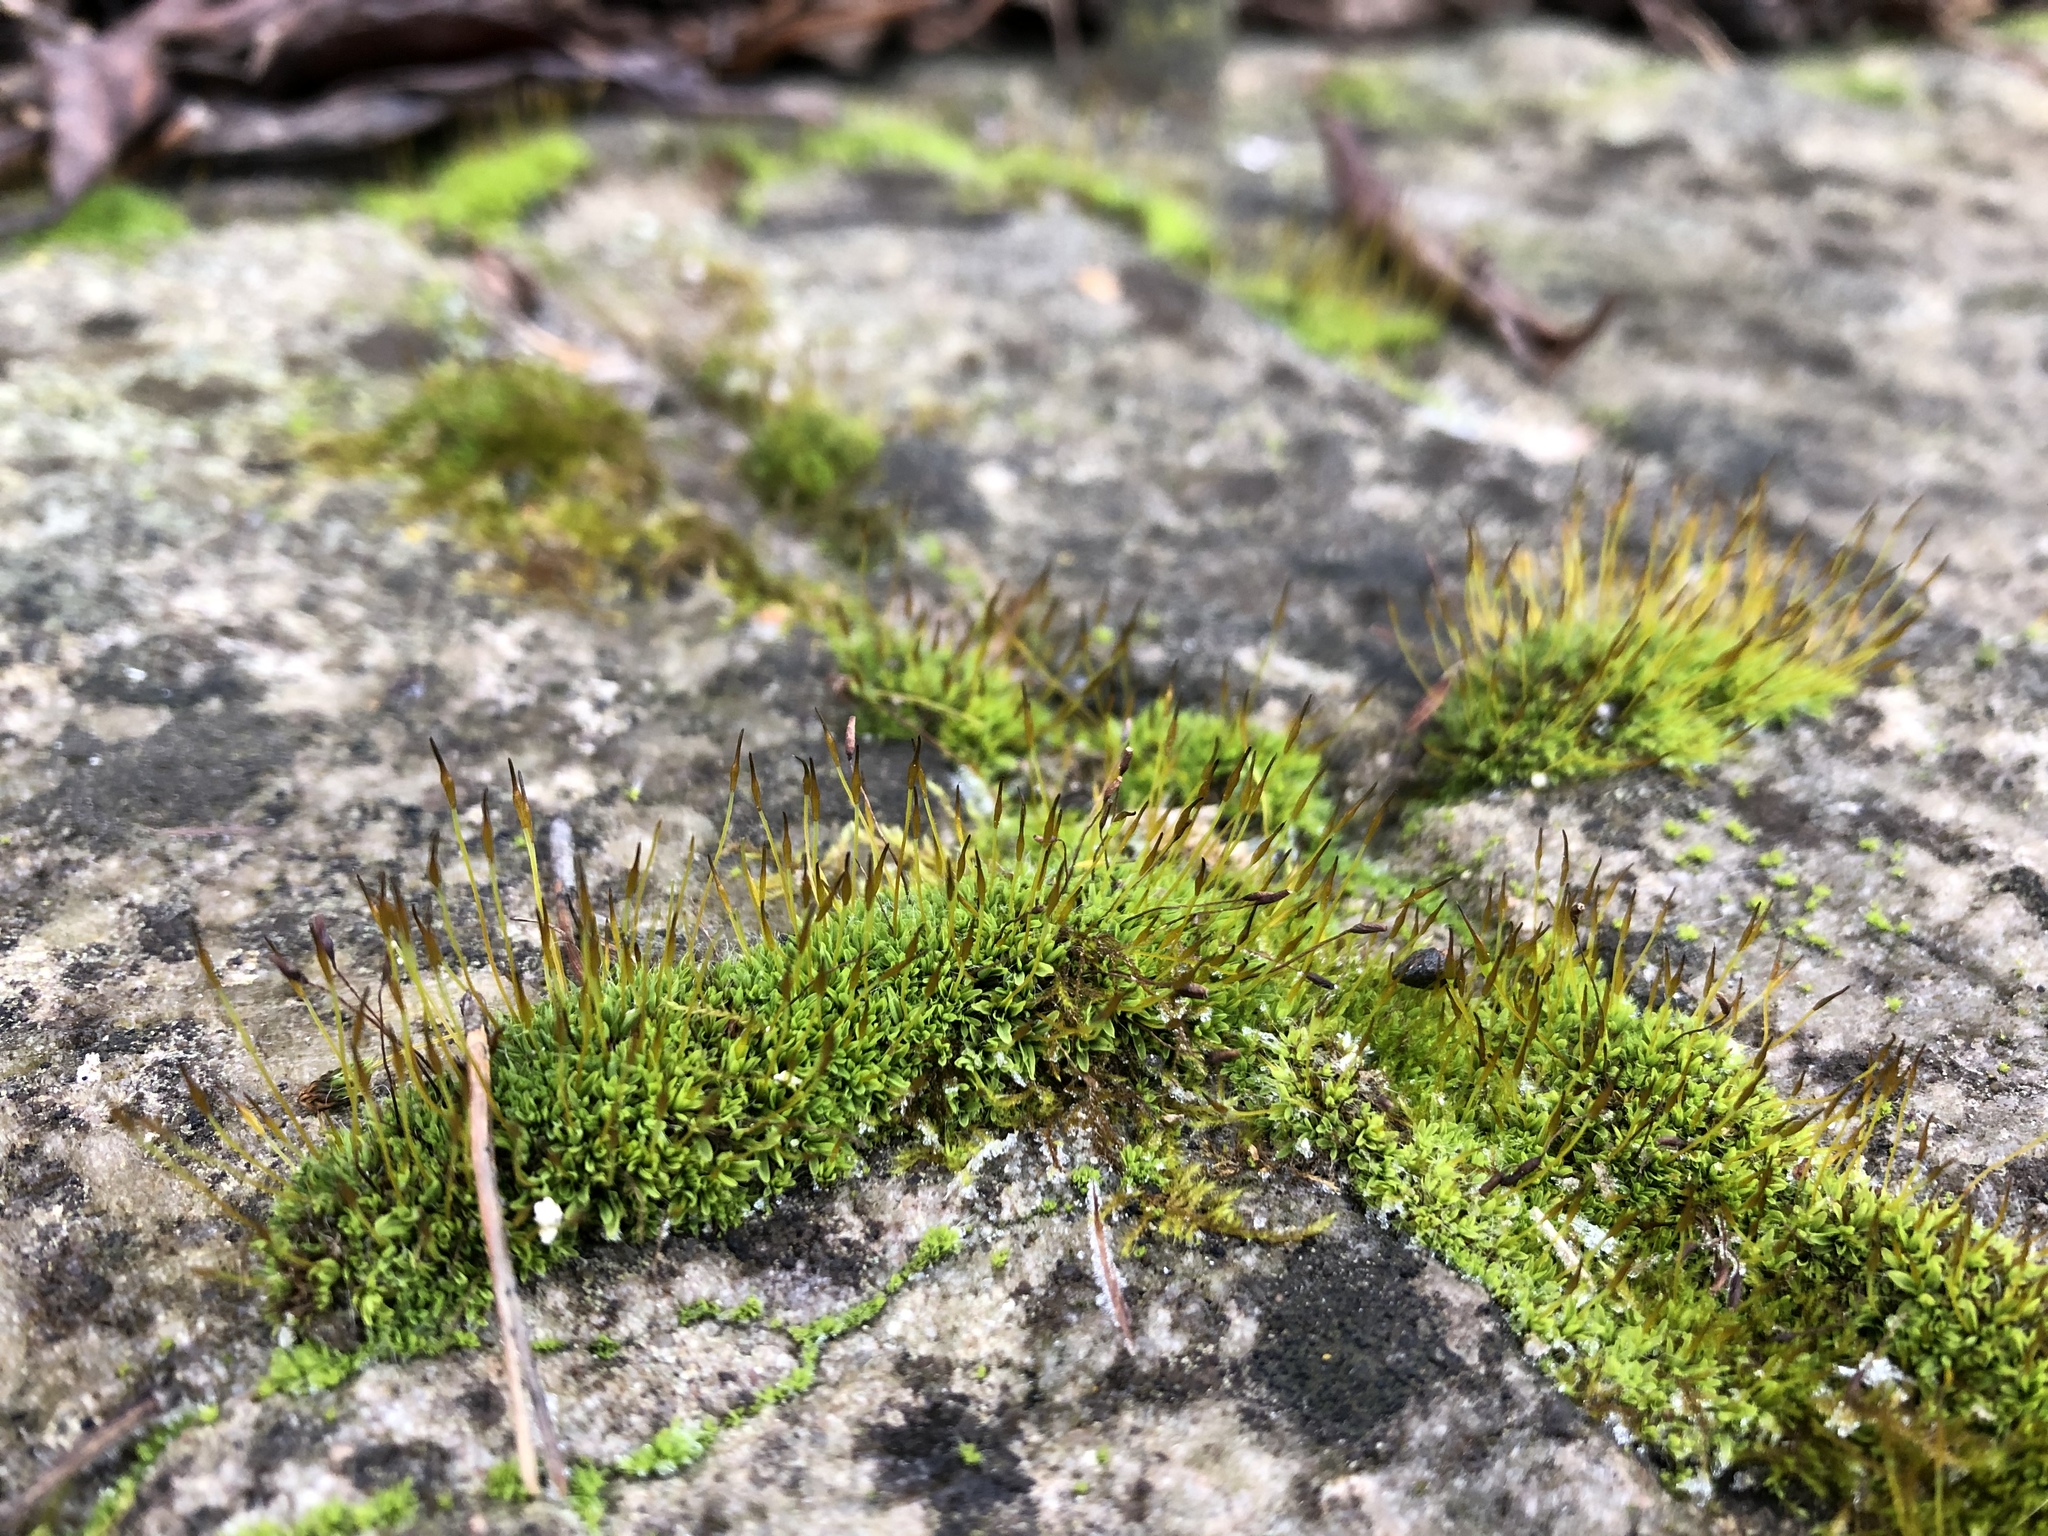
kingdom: Plantae
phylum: Bryophyta
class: Bryopsida
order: Pottiales
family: Pottiaceae
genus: Tortula
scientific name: Tortula muralis
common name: Wall screw-moss
